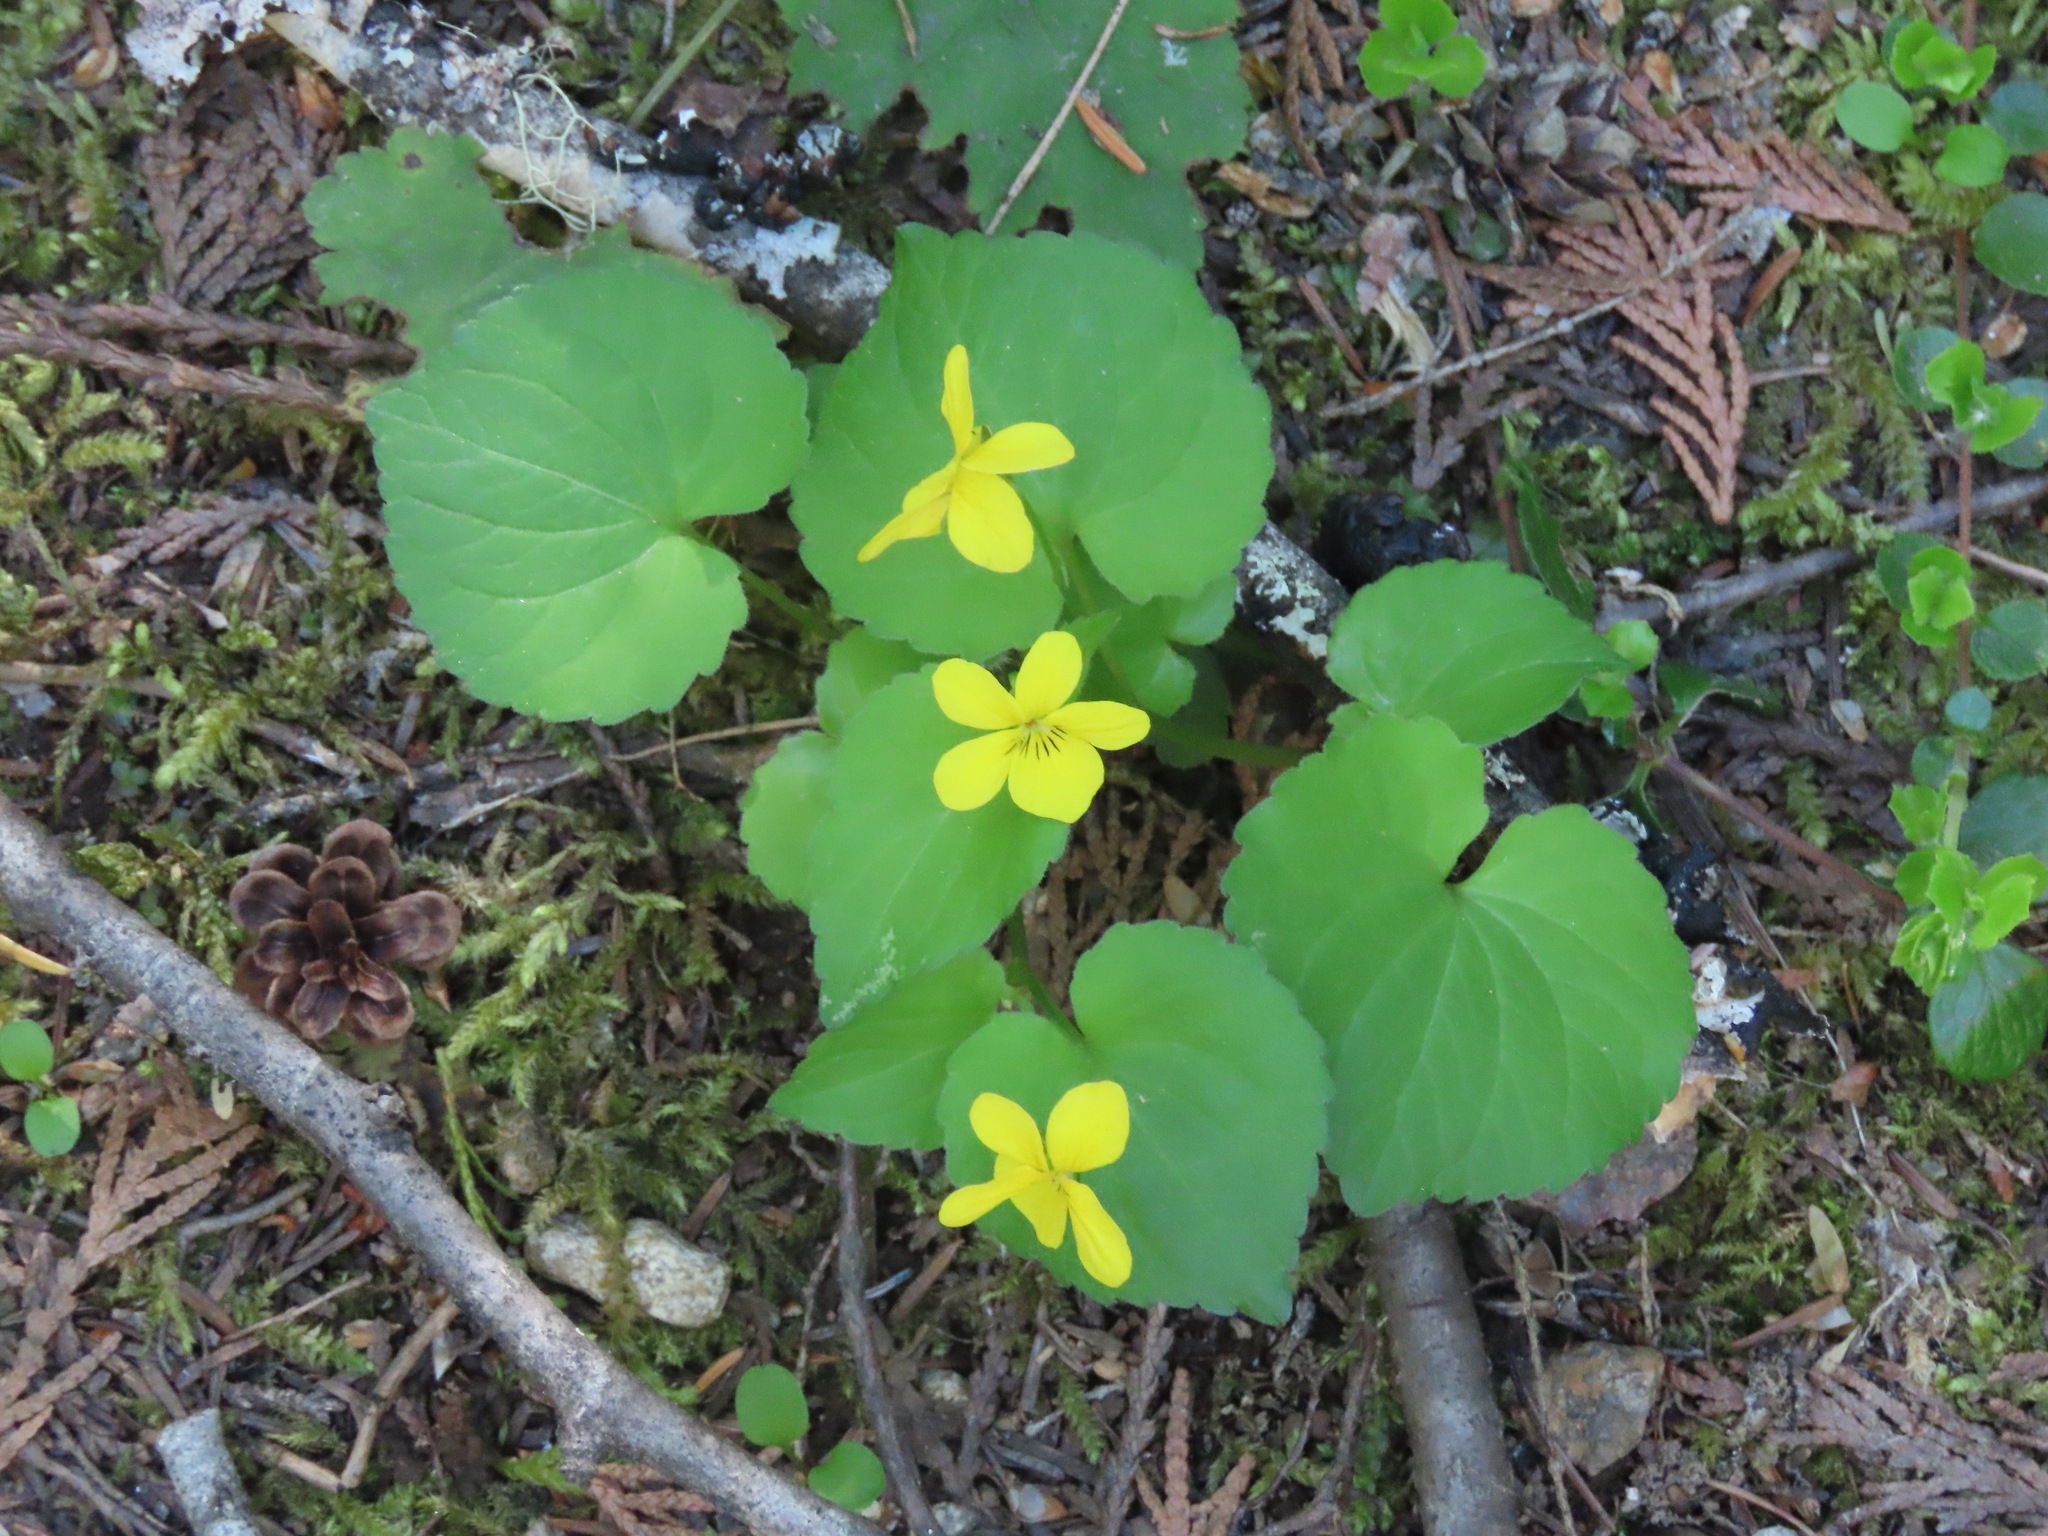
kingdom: Plantae
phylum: Tracheophyta
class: Magnoliopsida
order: Malpighiales
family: Violaceae
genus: Viola
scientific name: Viola glabella
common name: Stream violet
